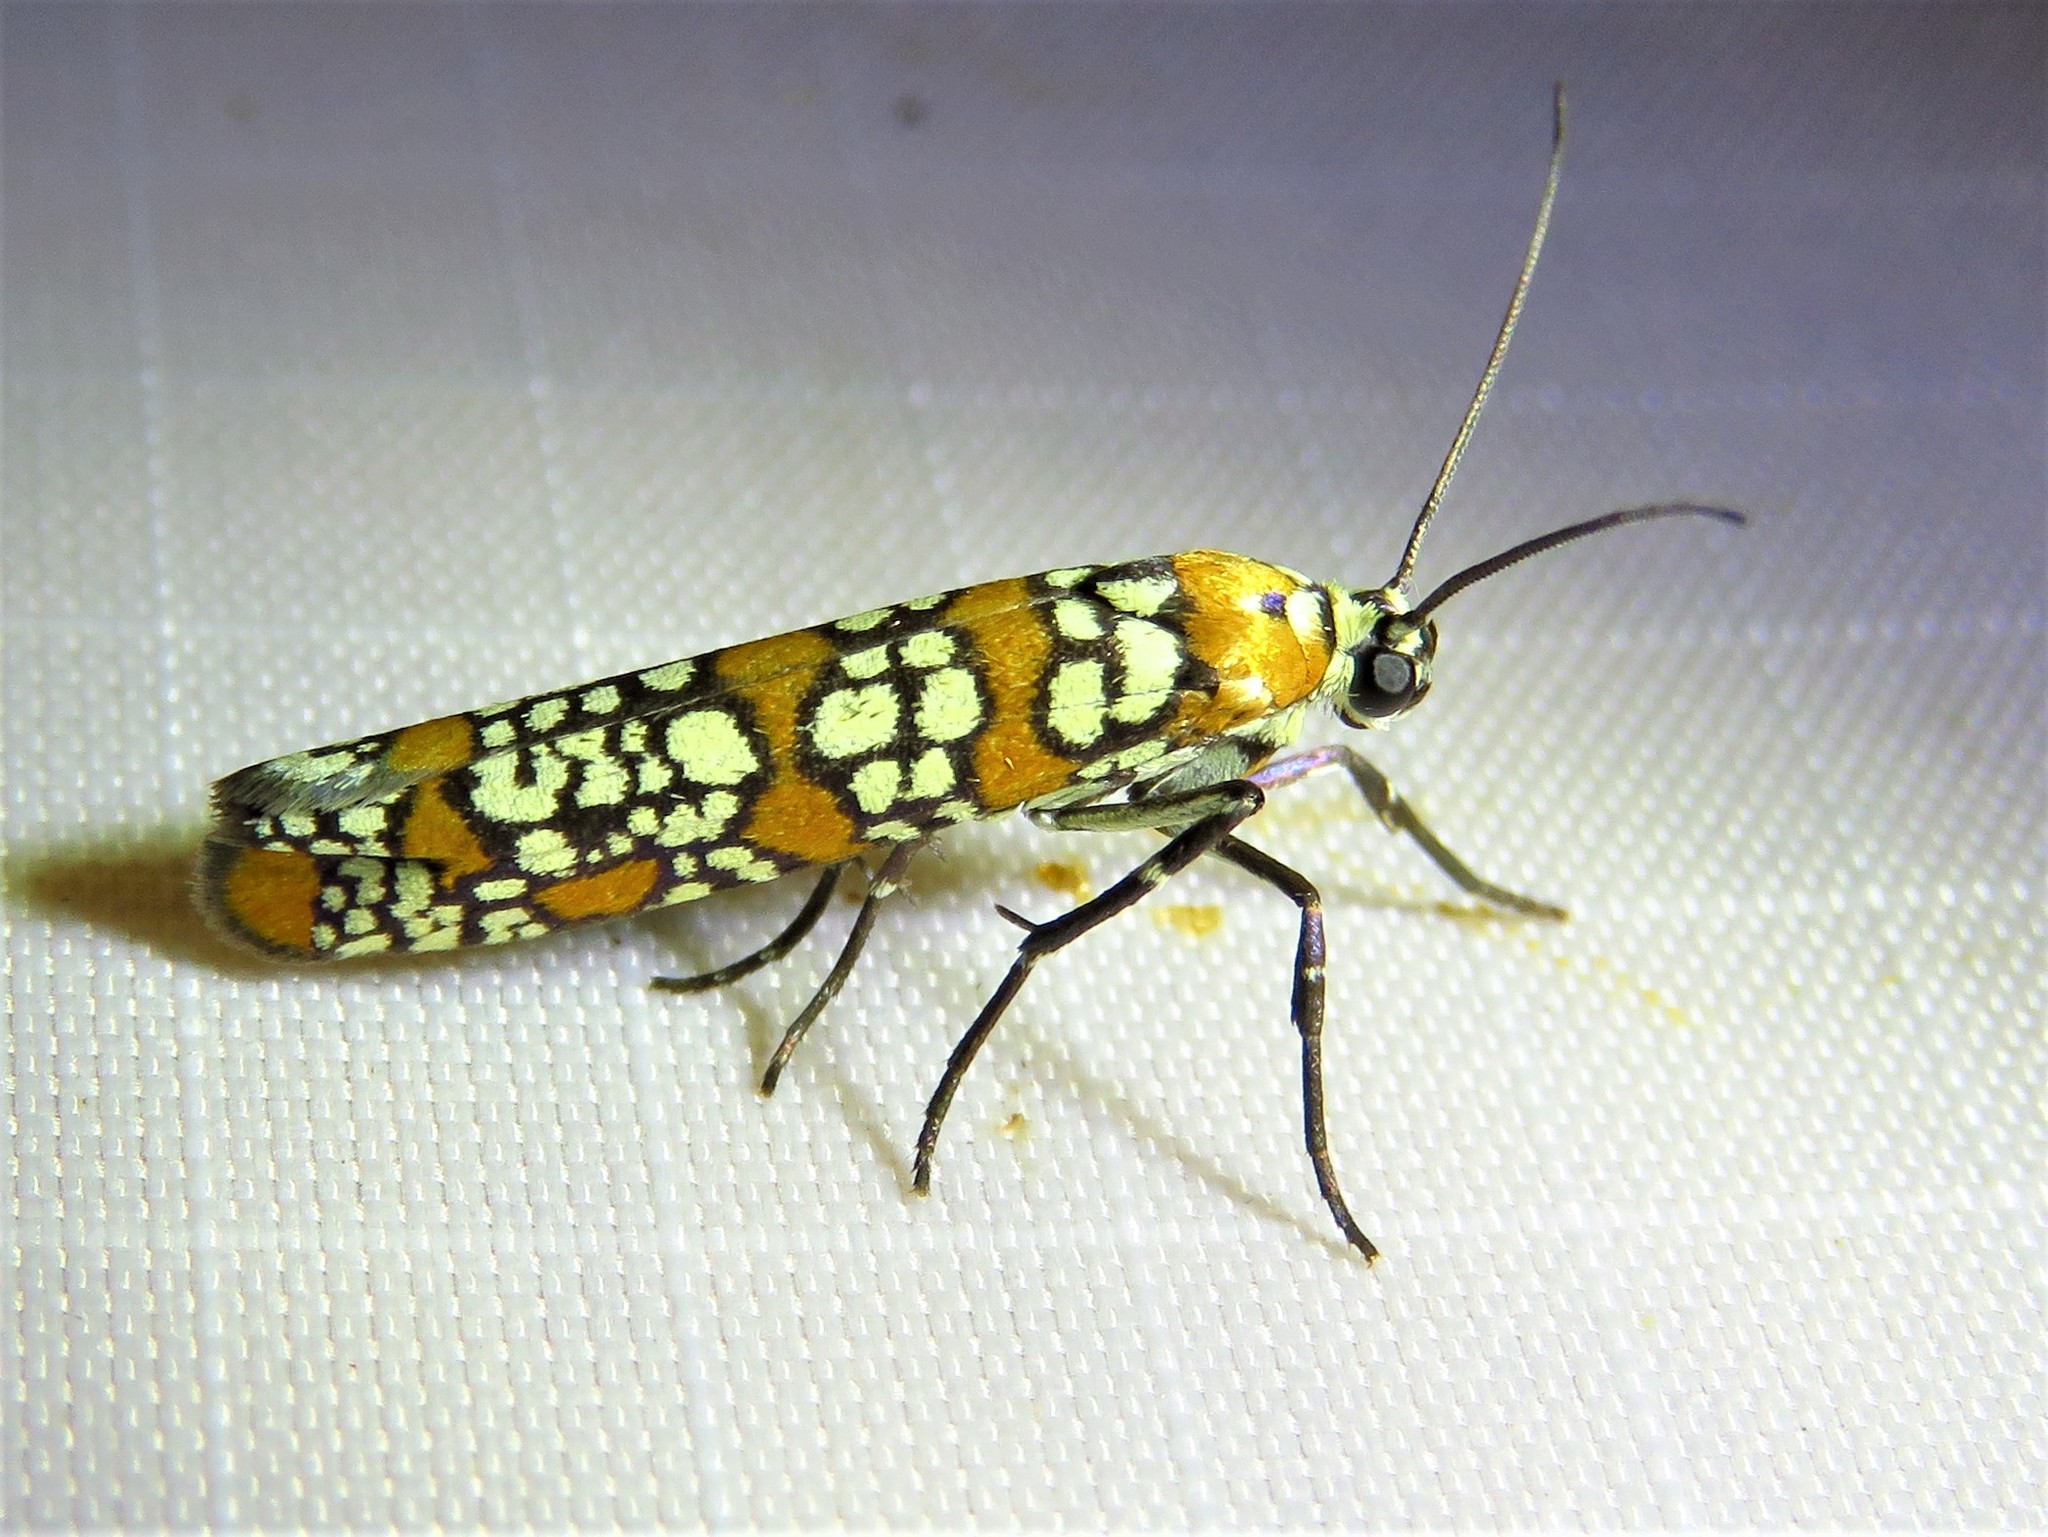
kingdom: Animalia
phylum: Arthropoda
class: Insecta
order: Lepidoptera
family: Attevidae
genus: Atteva
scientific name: Atteva punctella
